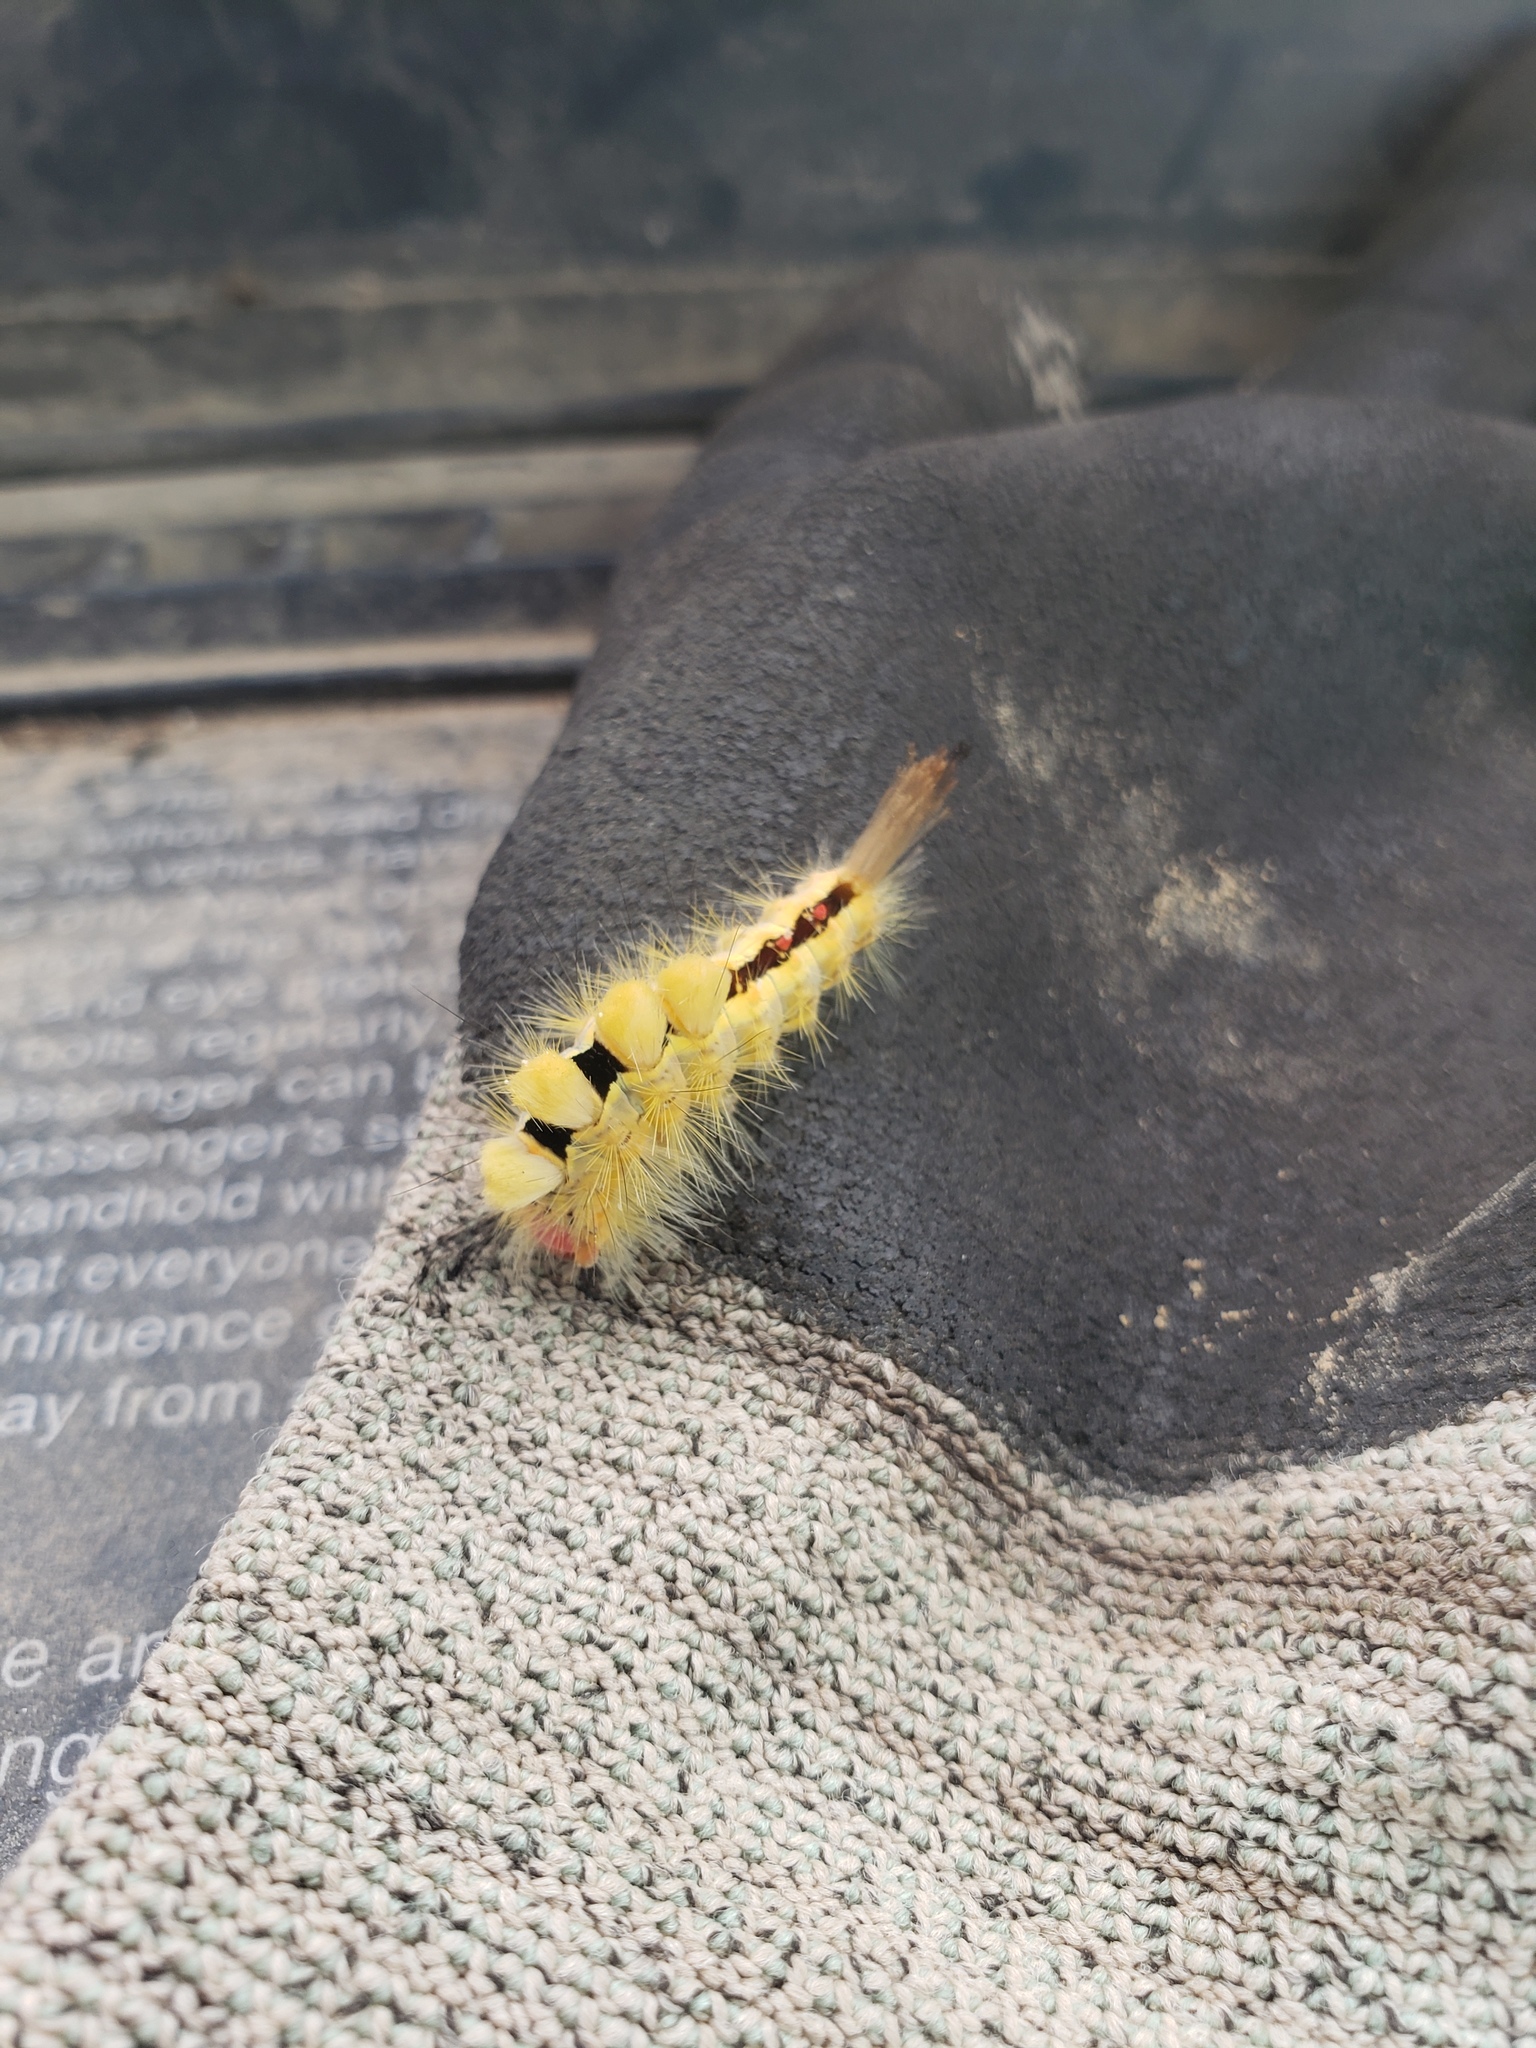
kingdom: Animalia
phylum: Arthropoda
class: Insecta
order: Lepidoptera
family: Erebidae
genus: Orgyia
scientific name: Orgyia leucostigma
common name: White-marked tussock moth
